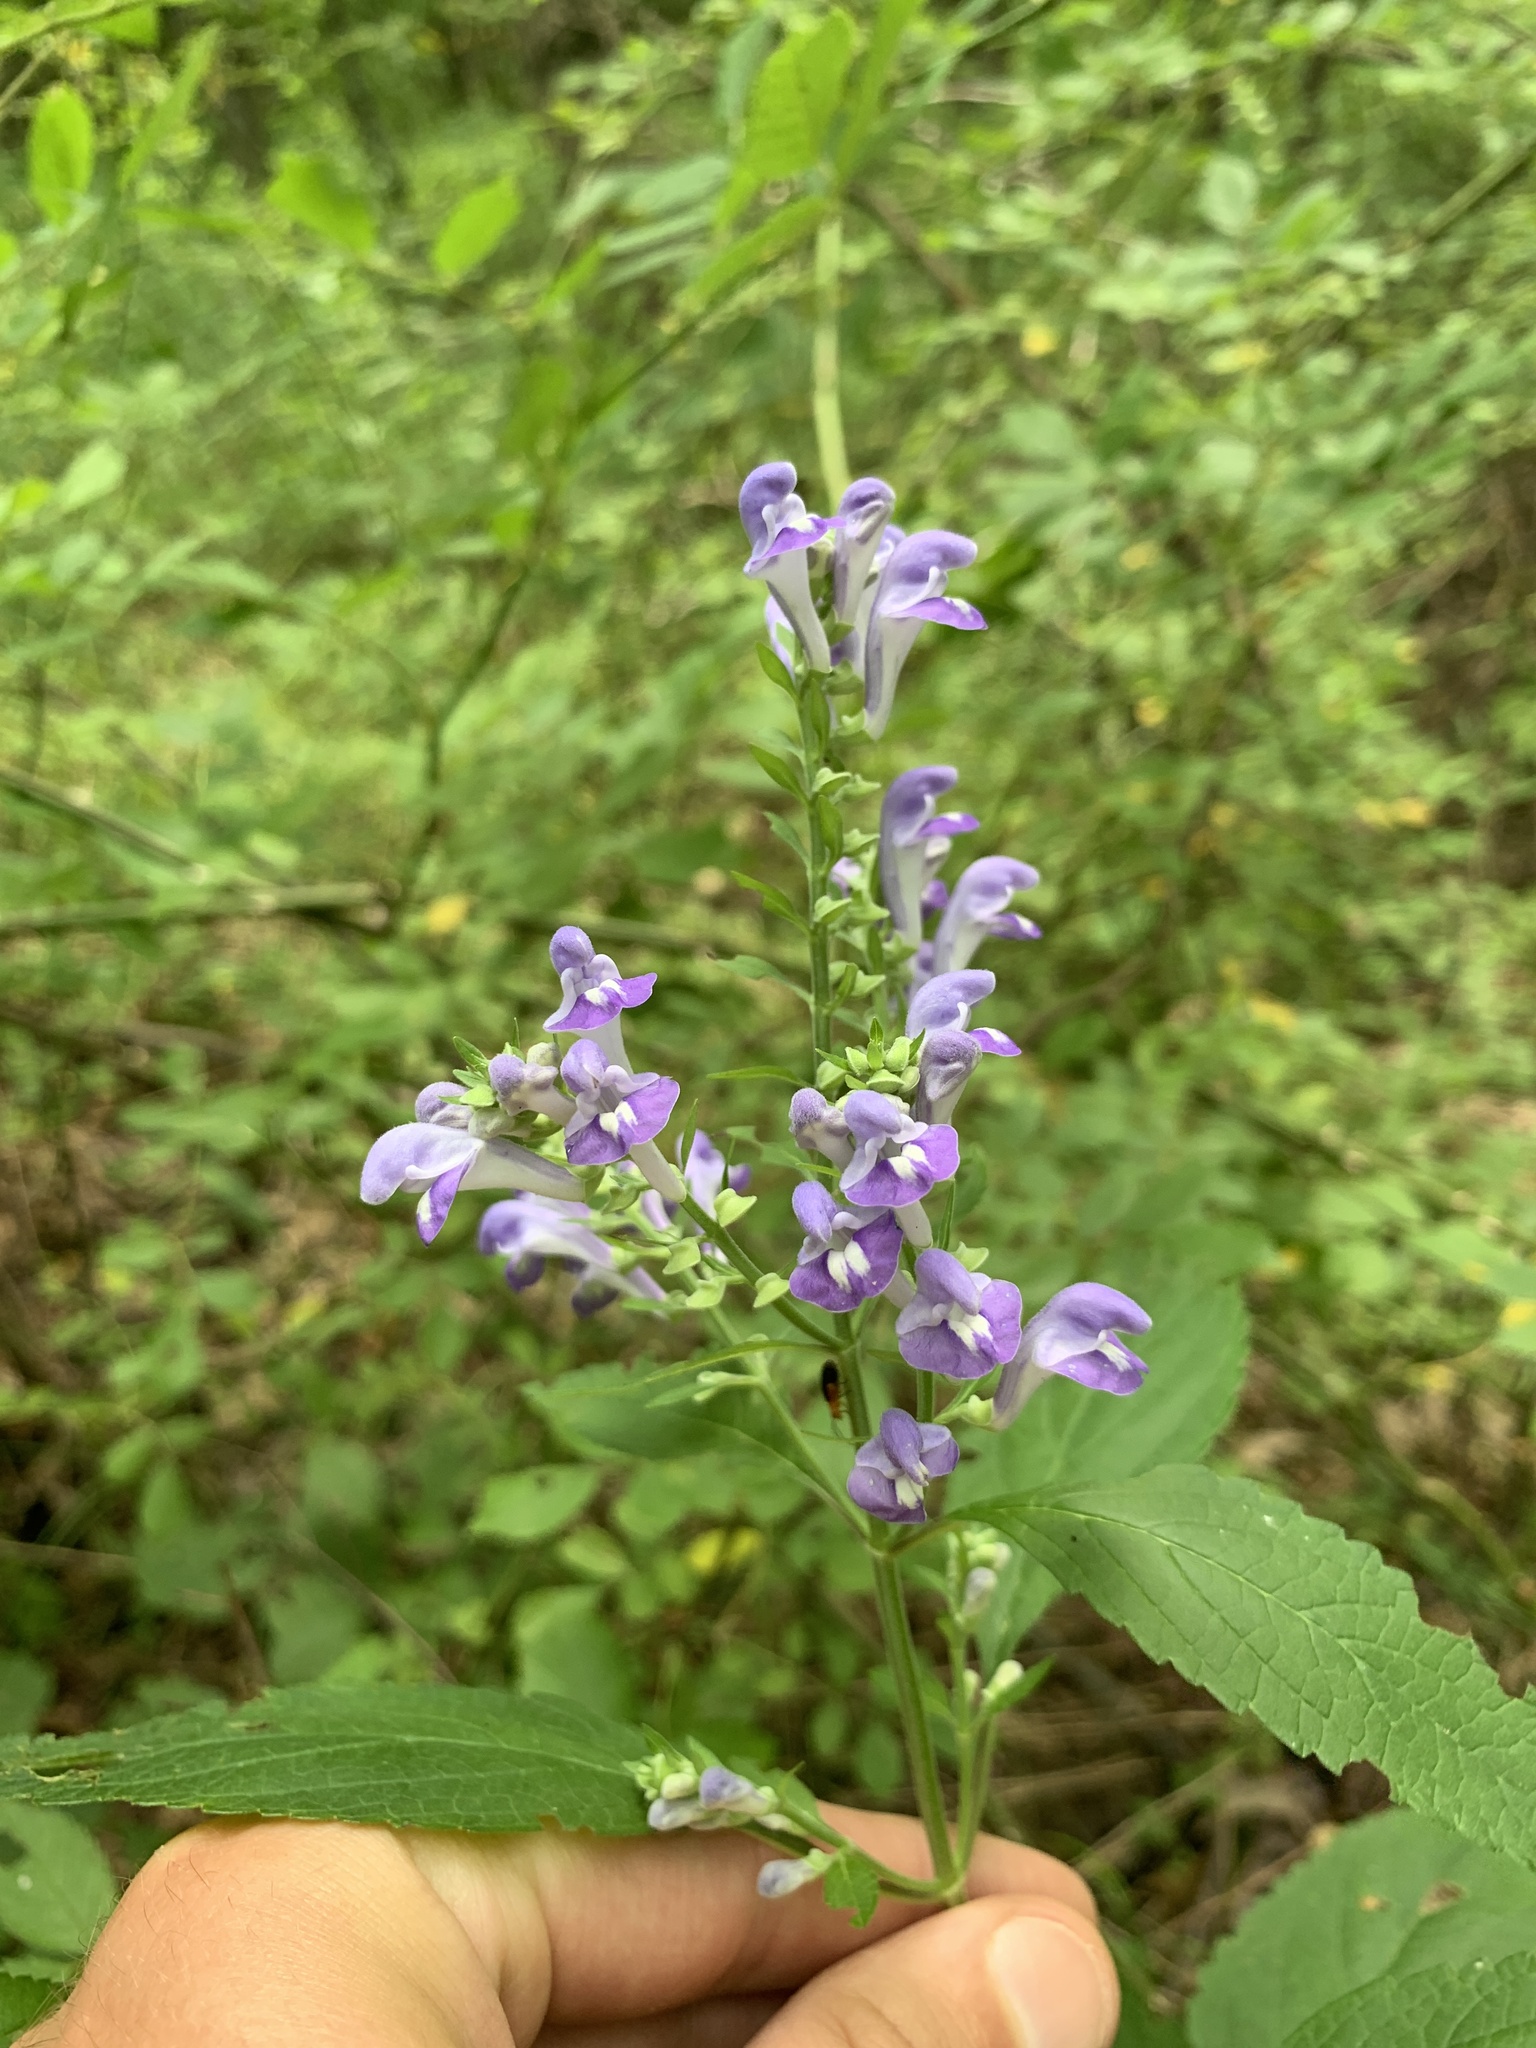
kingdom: Plantae
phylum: Tracheophyta
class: Magnoliopsida
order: Lamiales
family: Lamiaceae
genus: Scutellaria
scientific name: Scutellaria incana
